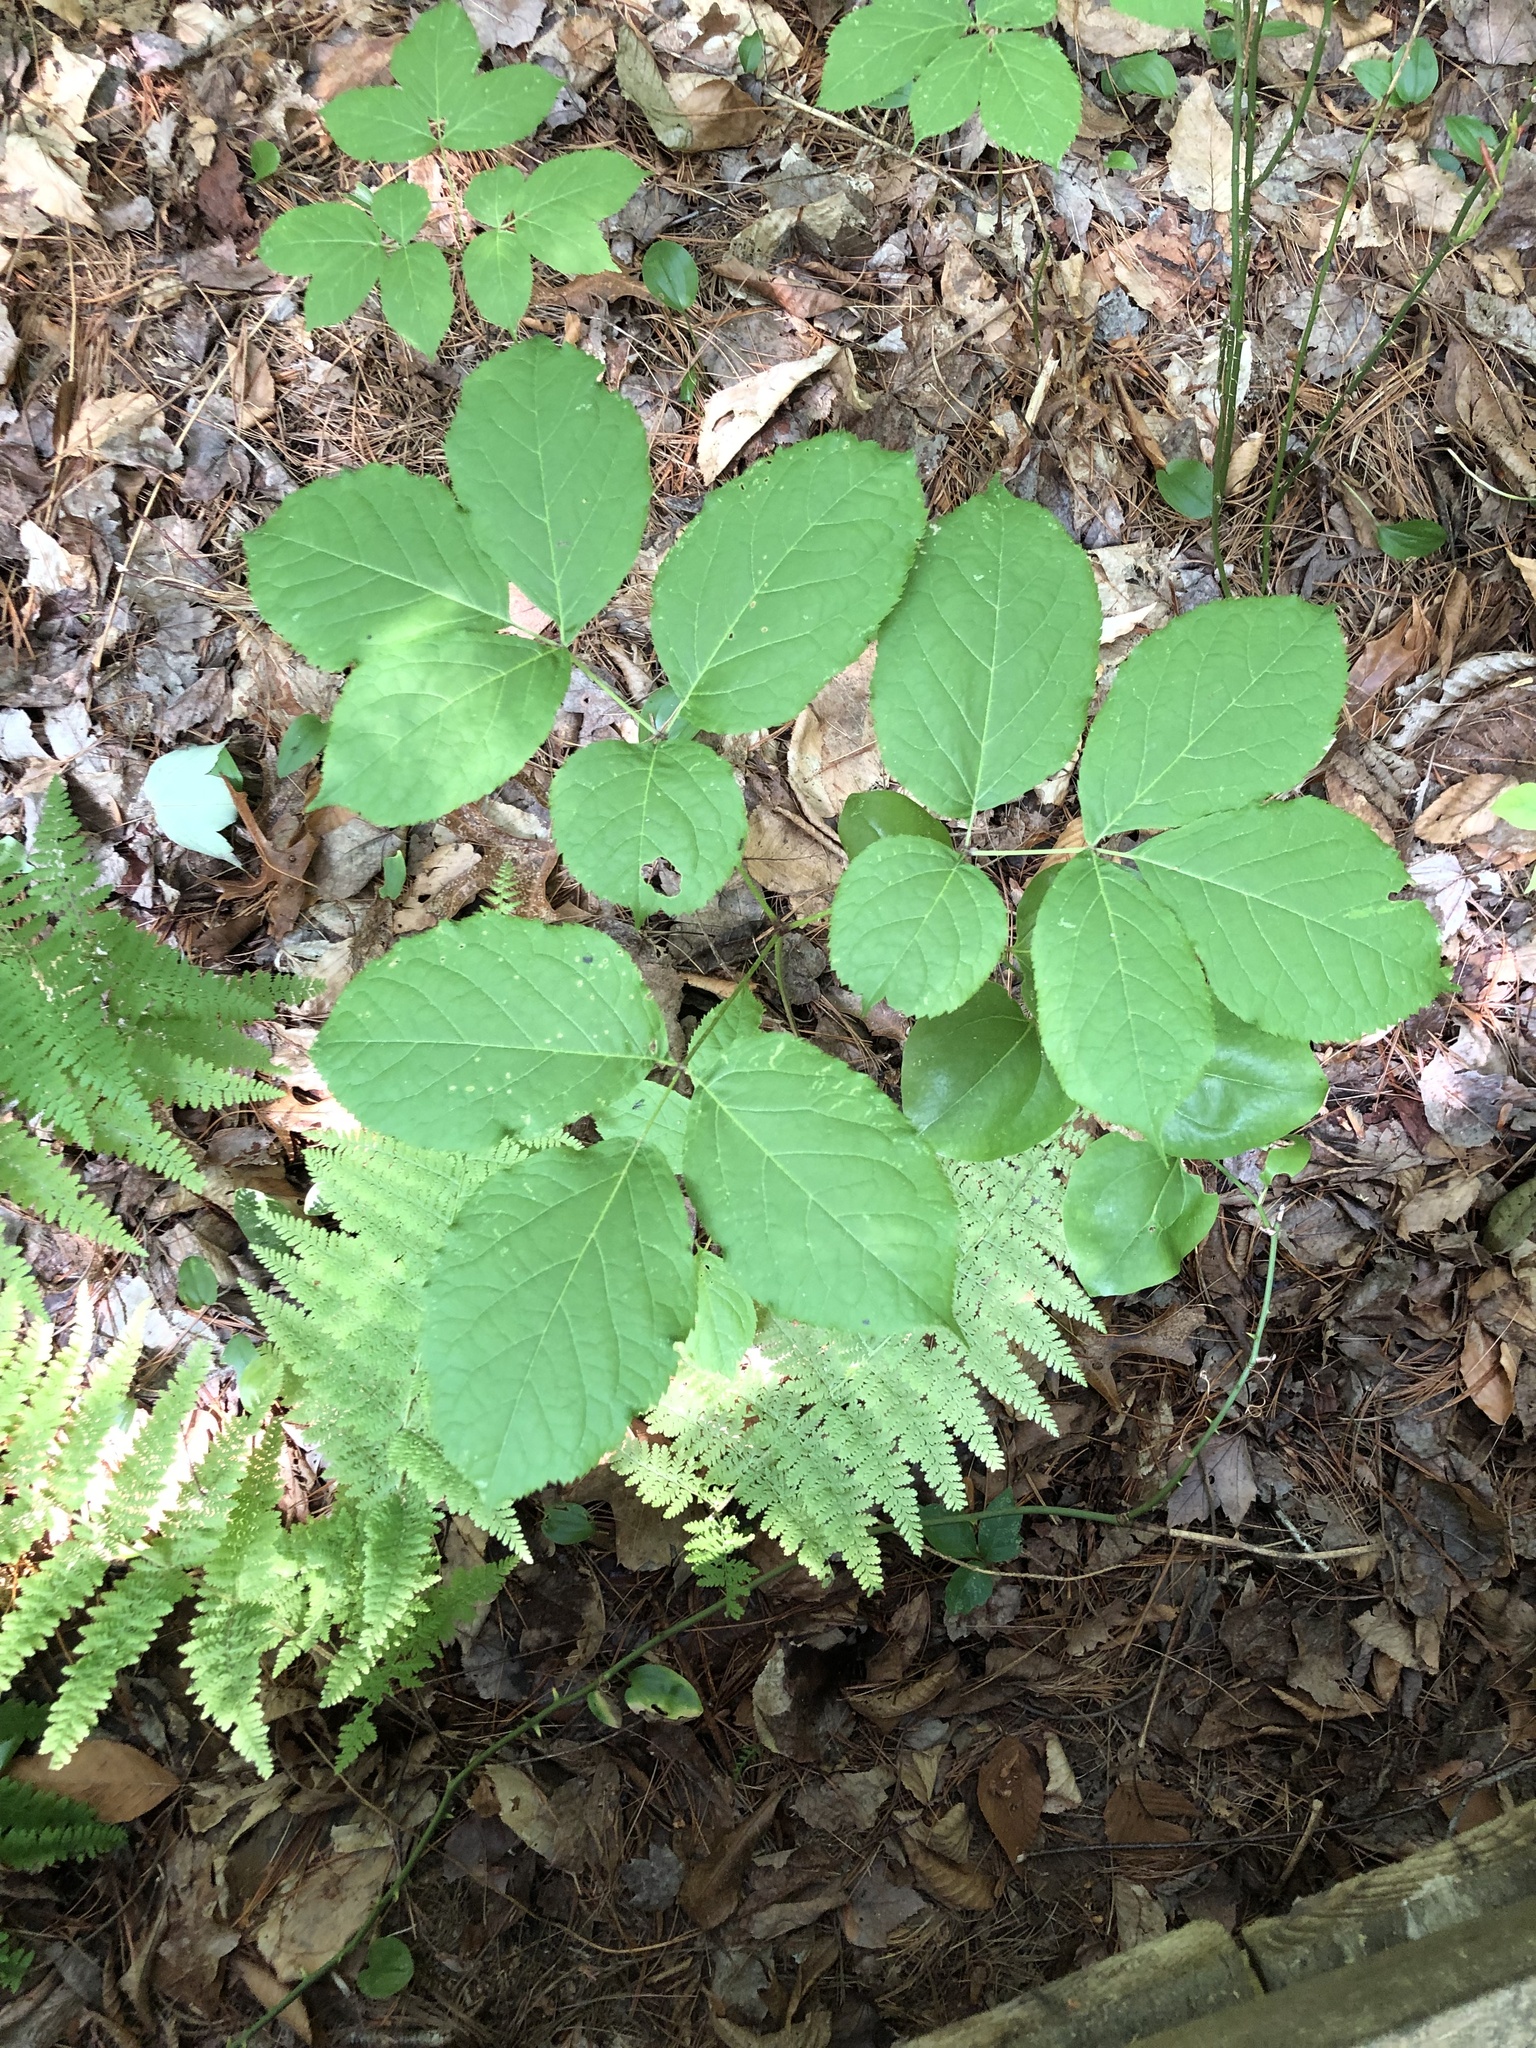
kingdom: Plantae
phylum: Tracheophyta
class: Magnoliopsida
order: Apiales
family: Araliaceae
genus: Aralia
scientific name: Aralia nudicaulis
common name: Wild sarsaparilla
